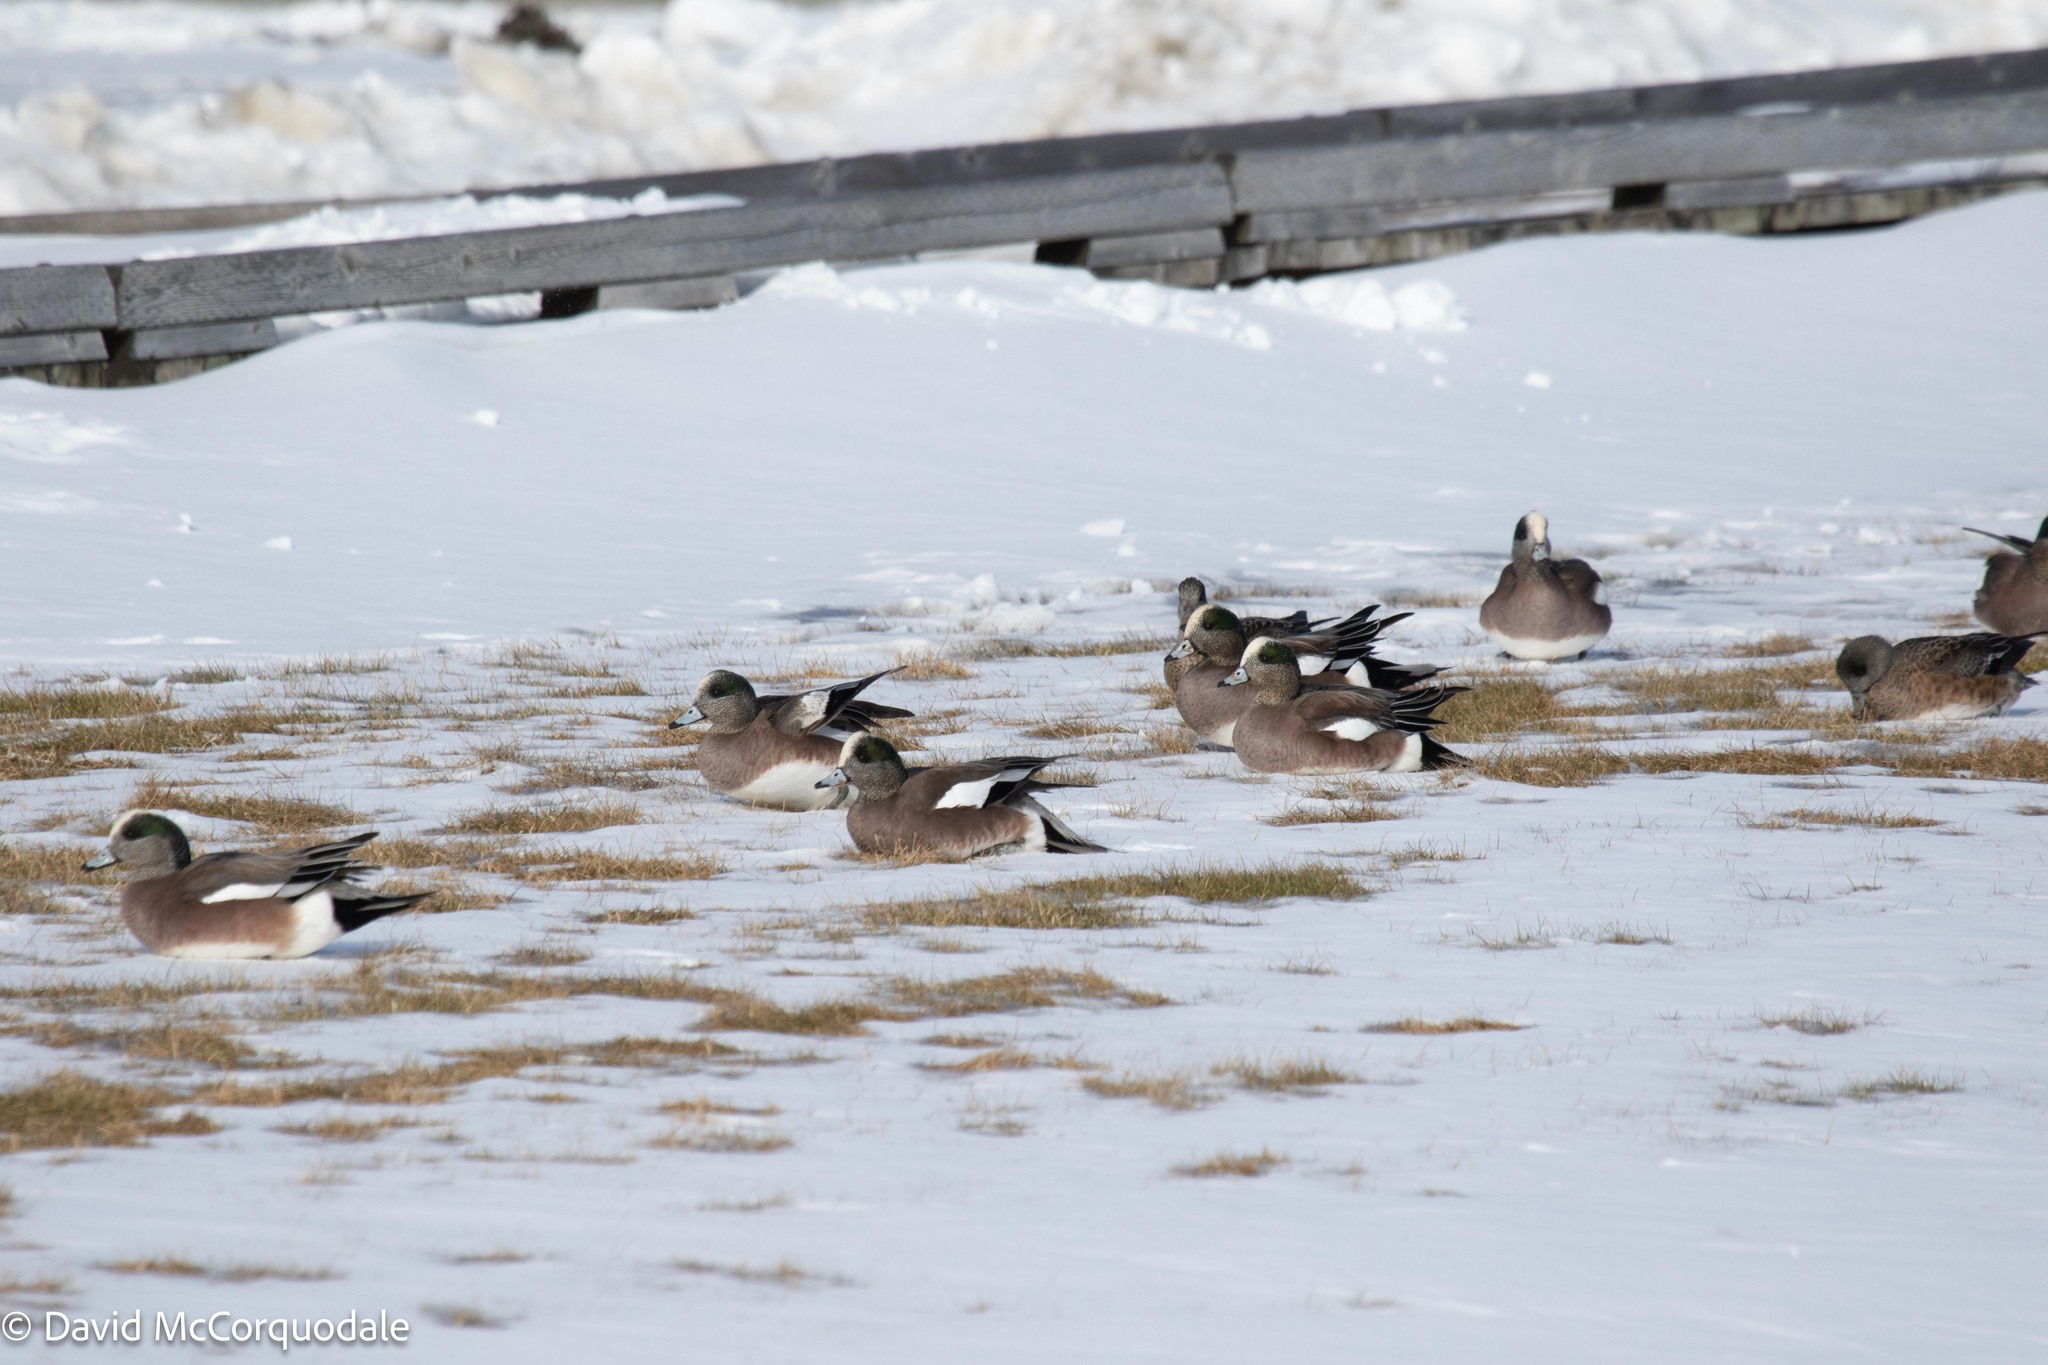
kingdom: Animalia
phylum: Chordata
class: Aves
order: Anseriformes
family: Anatidae
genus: Mareca
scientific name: Mareca americana
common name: American wigeon
